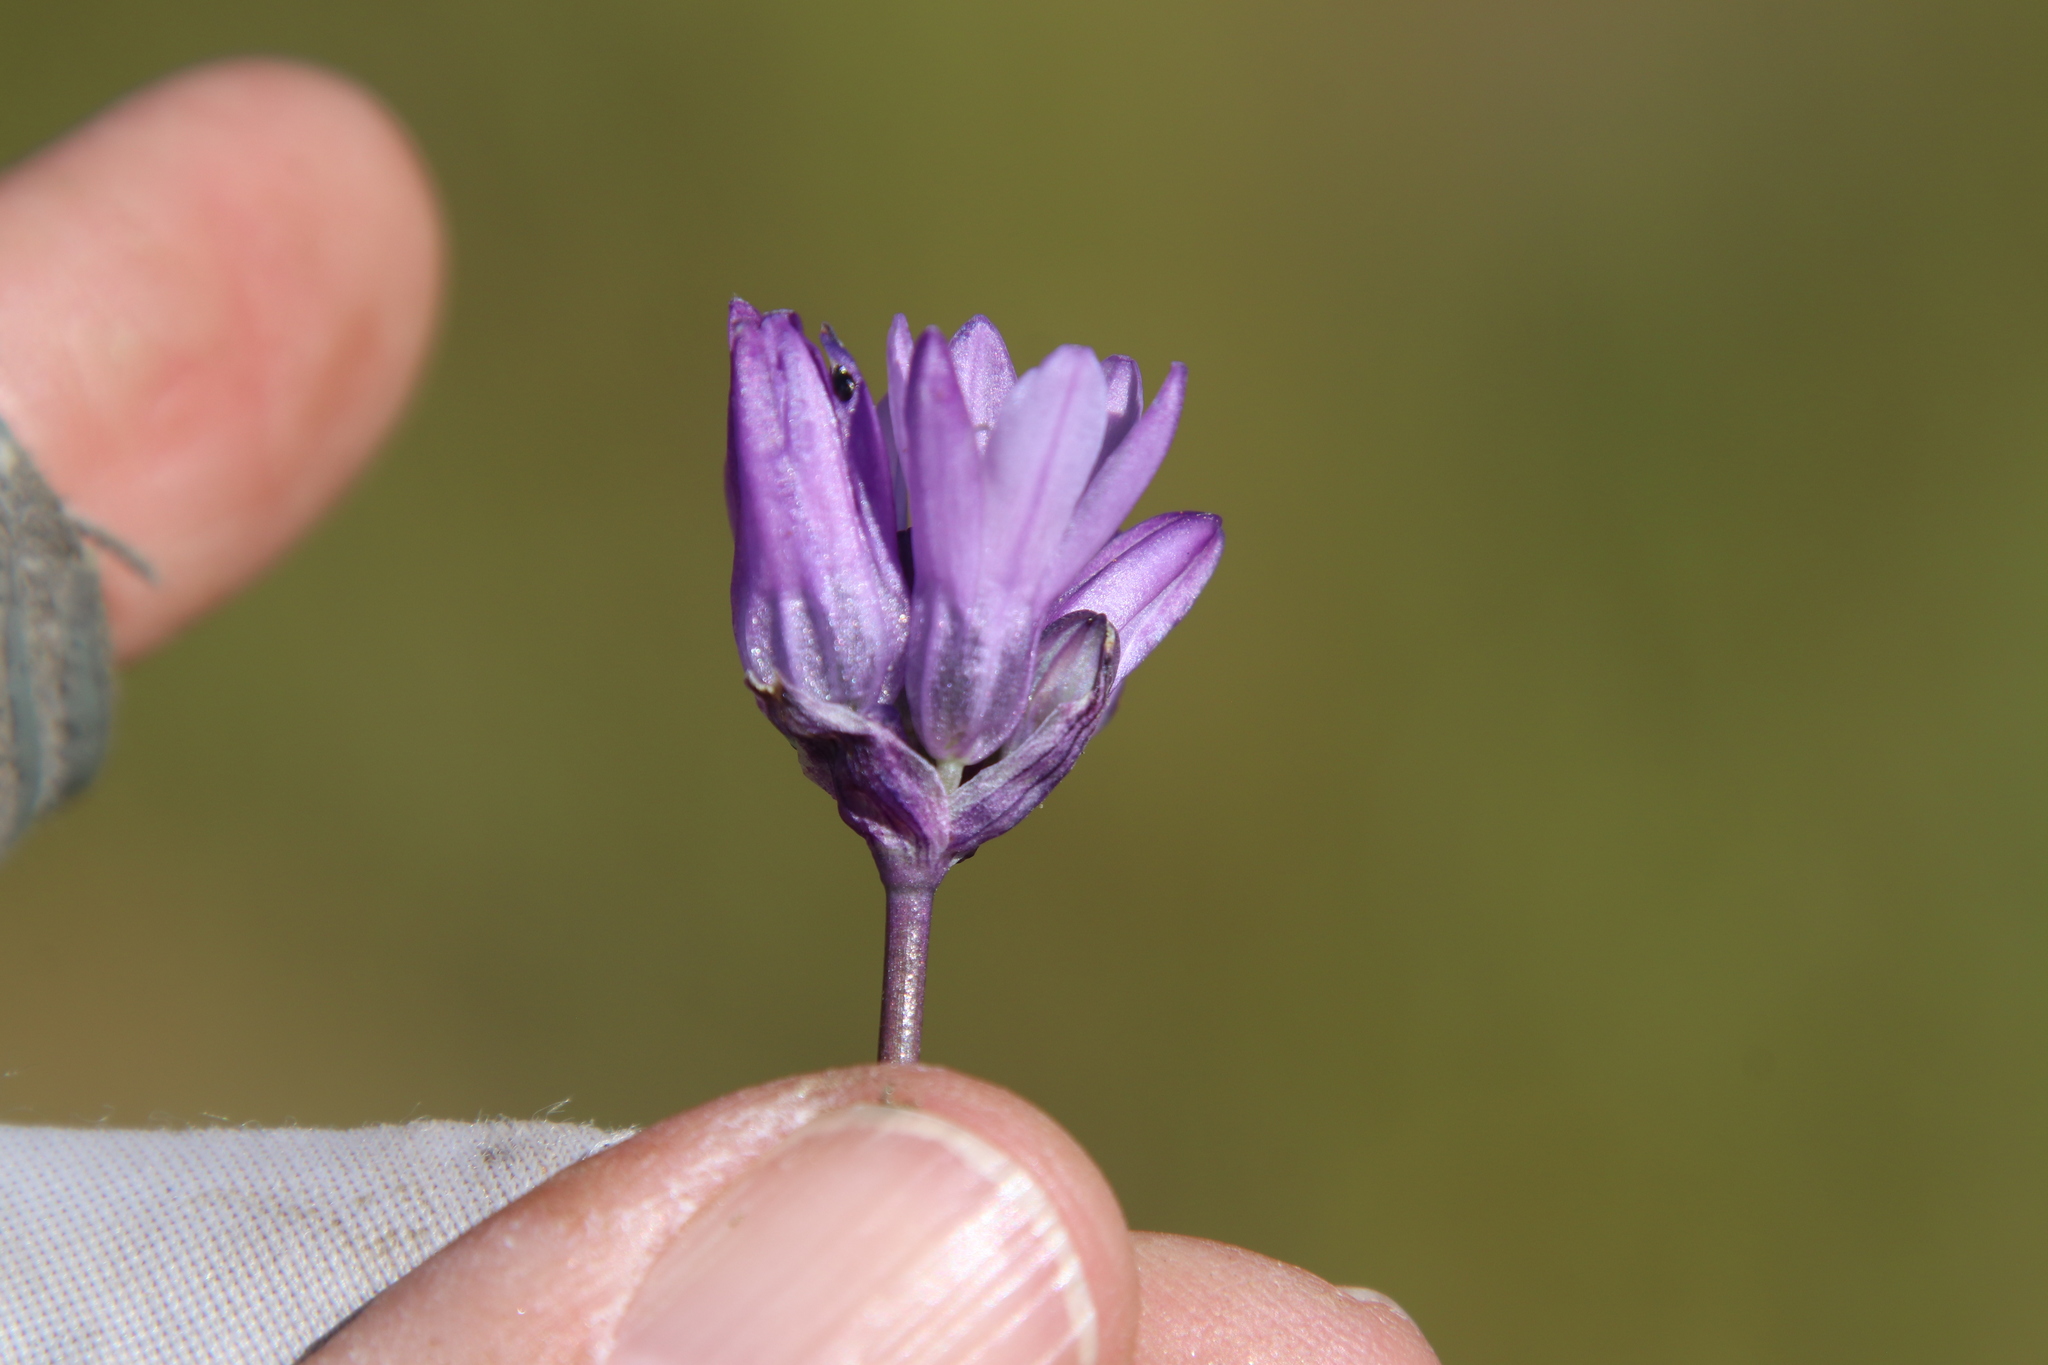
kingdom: Plantae
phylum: Tracheophyta
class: Liliopsida
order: Asparagales
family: Asparagaceae
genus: Dipterostemon
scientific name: Dipterostemon capitatus
